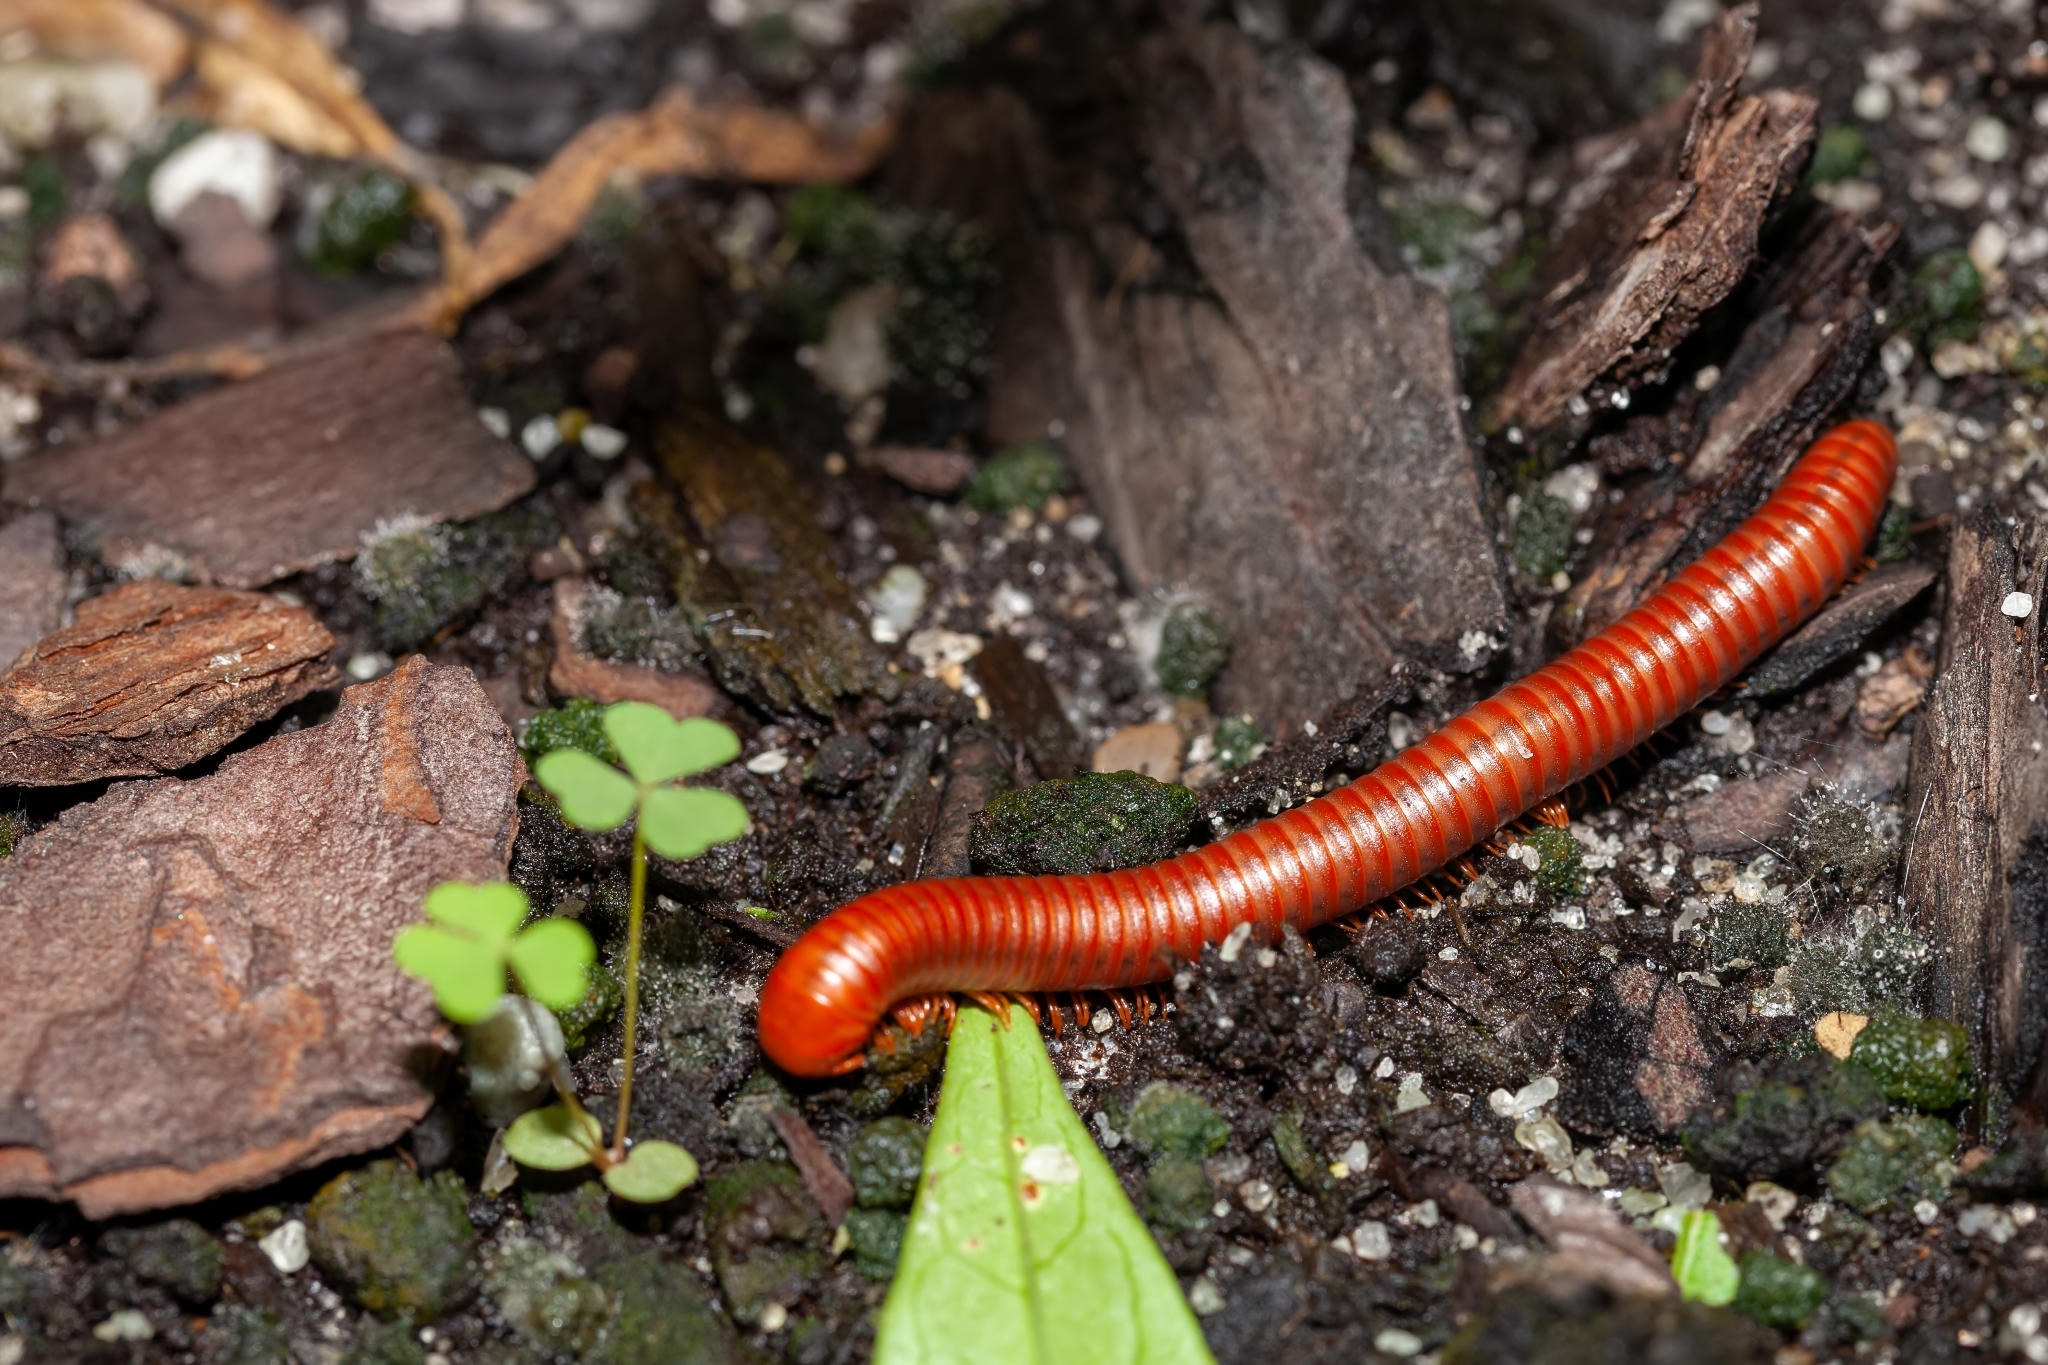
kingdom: Animalia
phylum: Arthropoda
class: Diplopoda
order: Spirobolida
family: Pachybolidae
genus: Trigoniulus
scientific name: Trigoniulus corallinus
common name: Millipede
